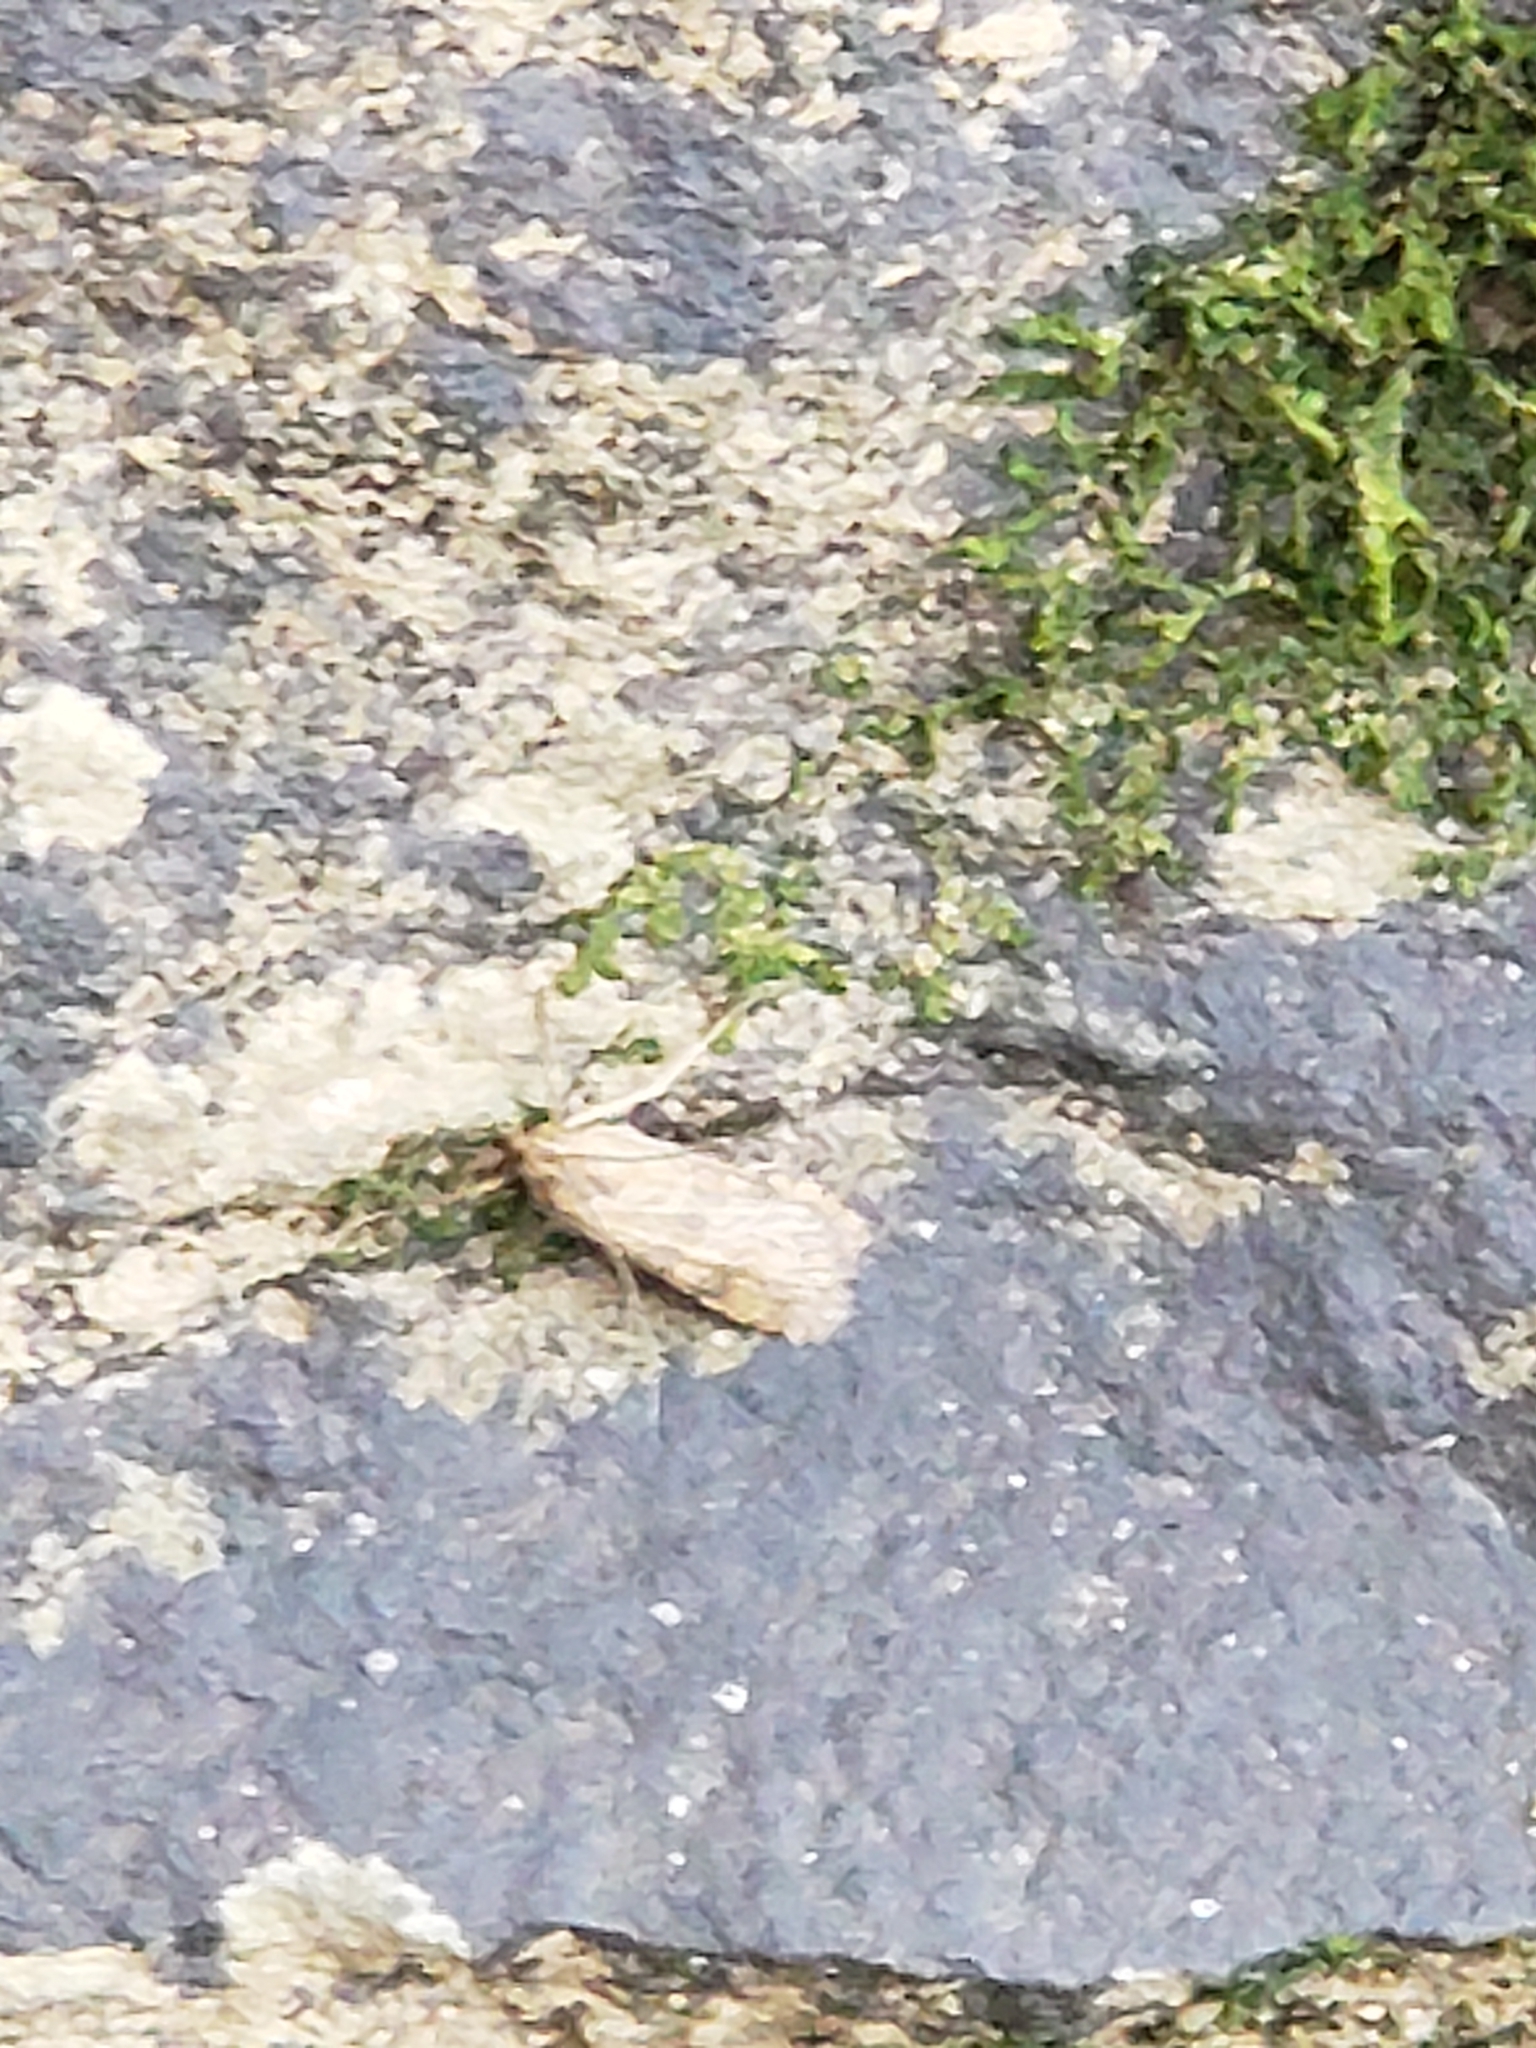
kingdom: Animalia
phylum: Arthropoda
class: Insecta
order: Lepidoptera
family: Crambidae
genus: Nomophila
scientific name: Nomophila nearctica
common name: American rush veneer
